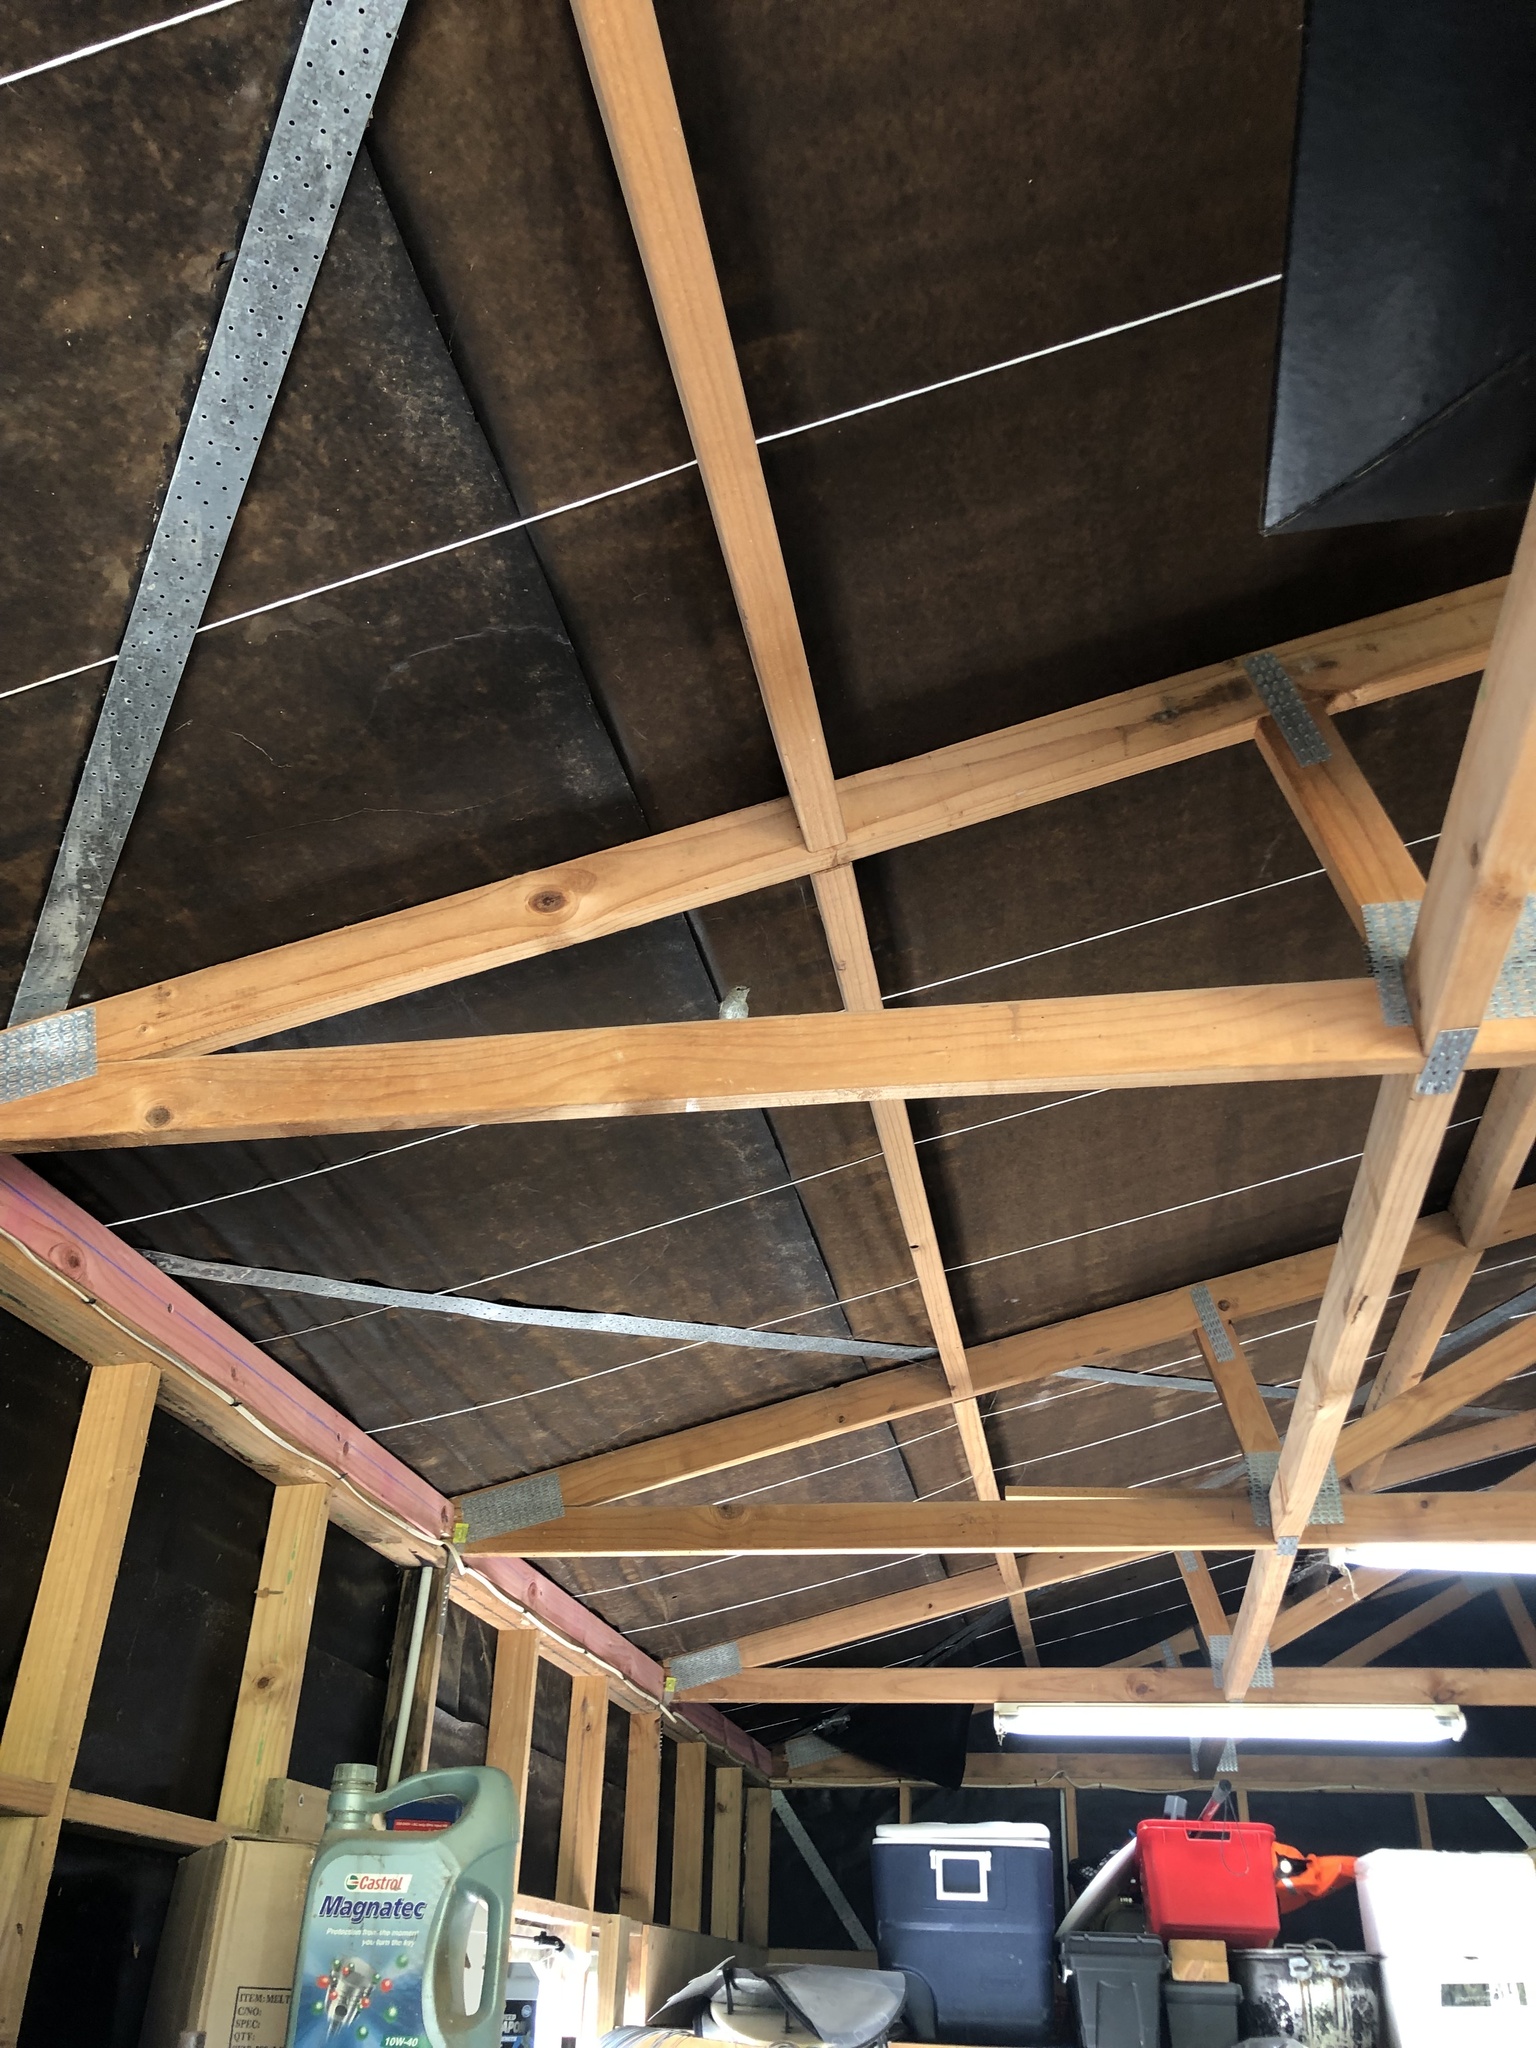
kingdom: Animalia
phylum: Chordata
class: Aves
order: Passeriformes
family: Acanthizidae
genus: Gerygone
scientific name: Gerygone igata
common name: Grey gerygone
